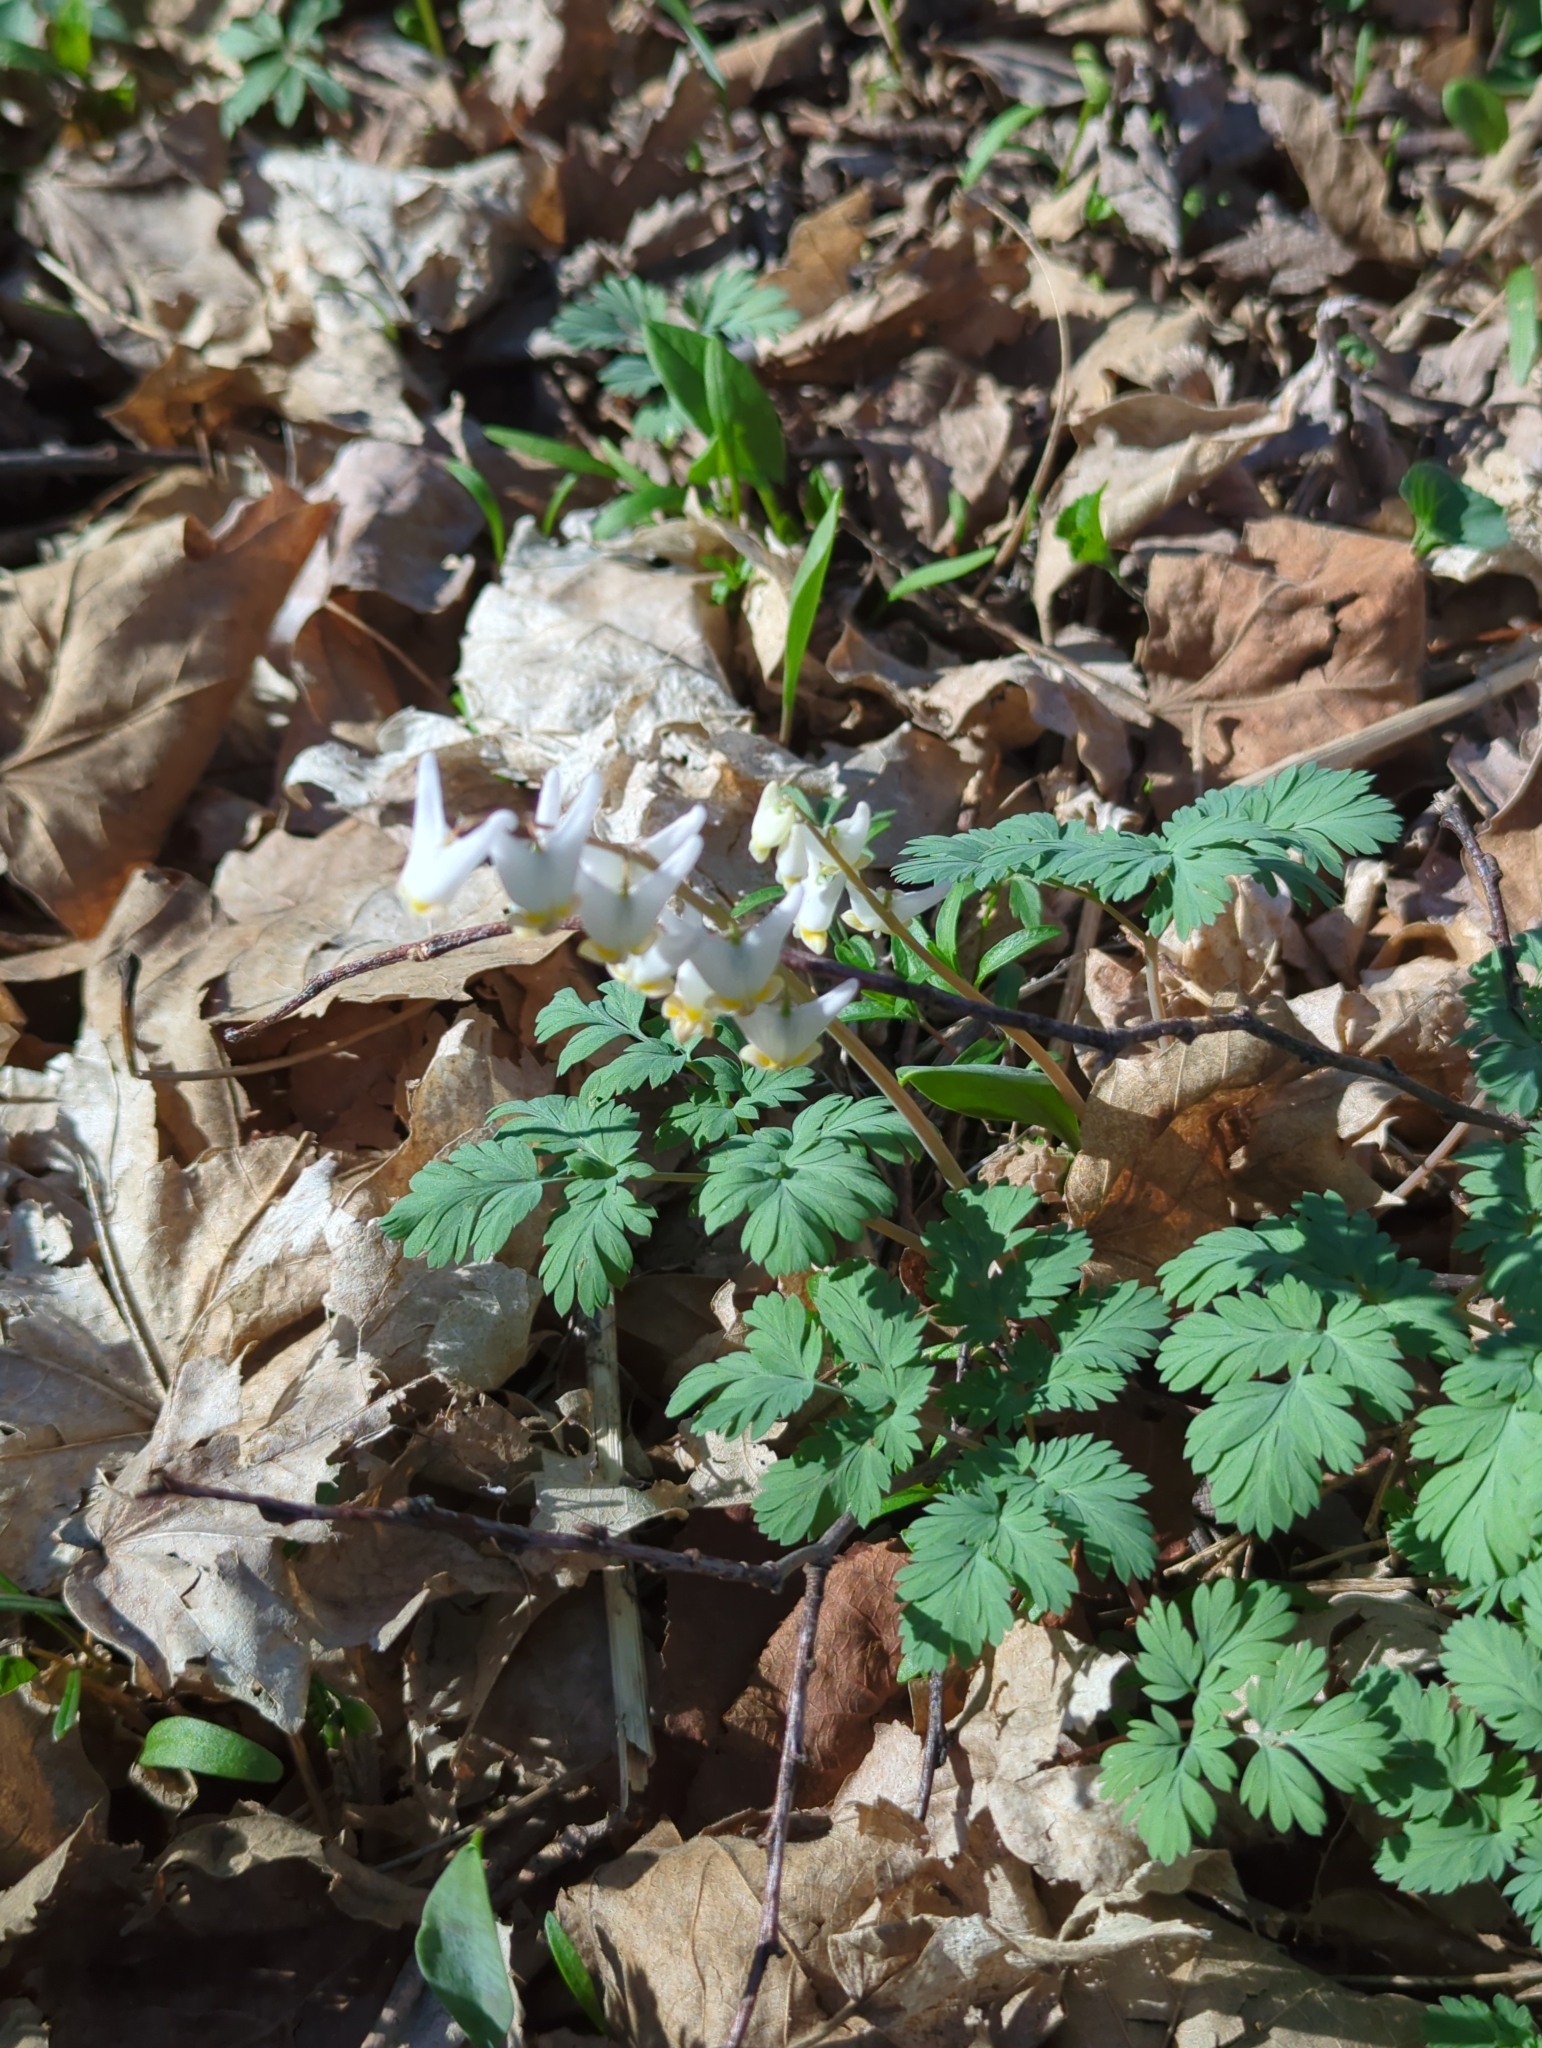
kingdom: Plantae
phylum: Tracheophyta
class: Magnoliopsida
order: Ranunculales
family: Papaveraceae
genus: Dicentra
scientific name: Dicentra cucullaria
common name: Dutchman's breeches
